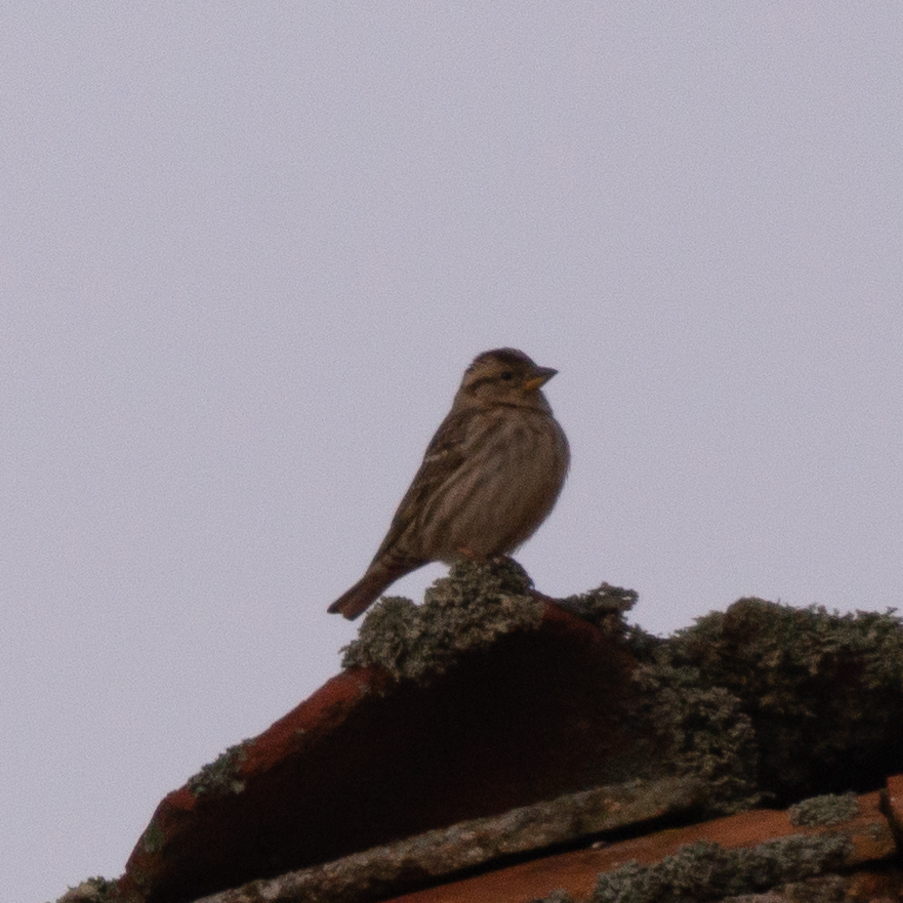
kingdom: Animalia
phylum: Chordata
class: Aves
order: Passeriformes
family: Passeridae
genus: Petronia
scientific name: Petronia petronia
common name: Rock sparrow
